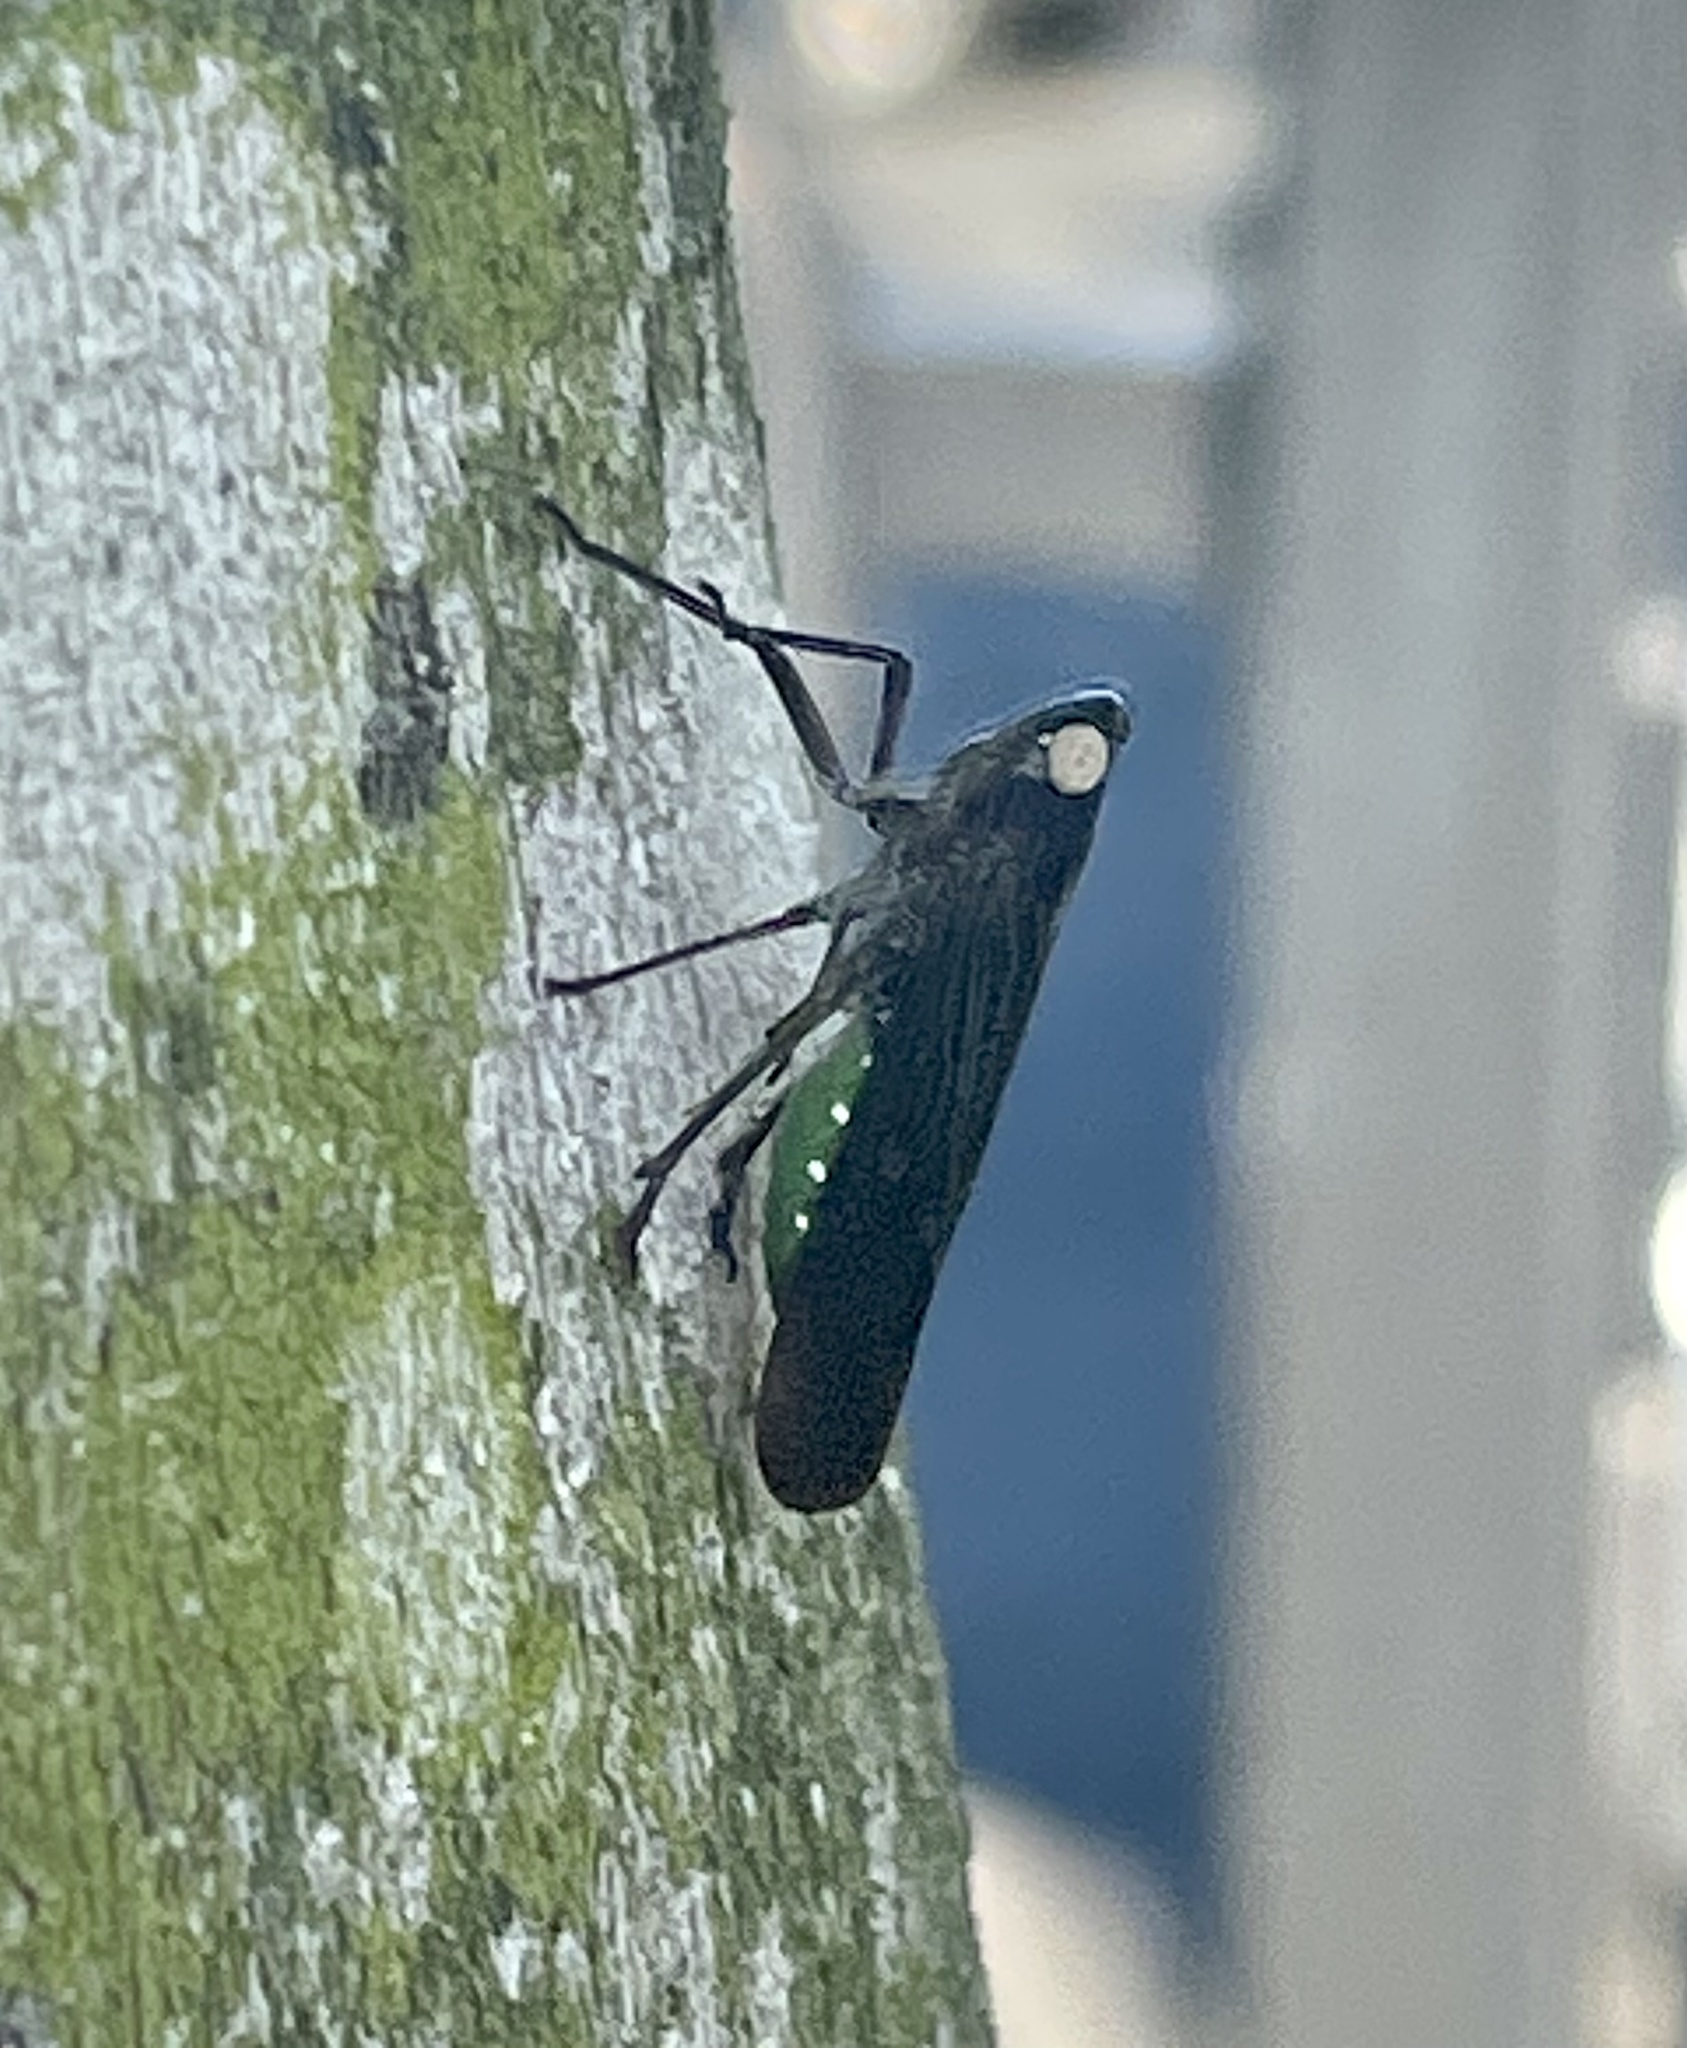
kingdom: Animalia
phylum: Arthropoda
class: Insecta
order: Hemiptera
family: Fulgoridae
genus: Desudaba
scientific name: Desudaba psittacus
